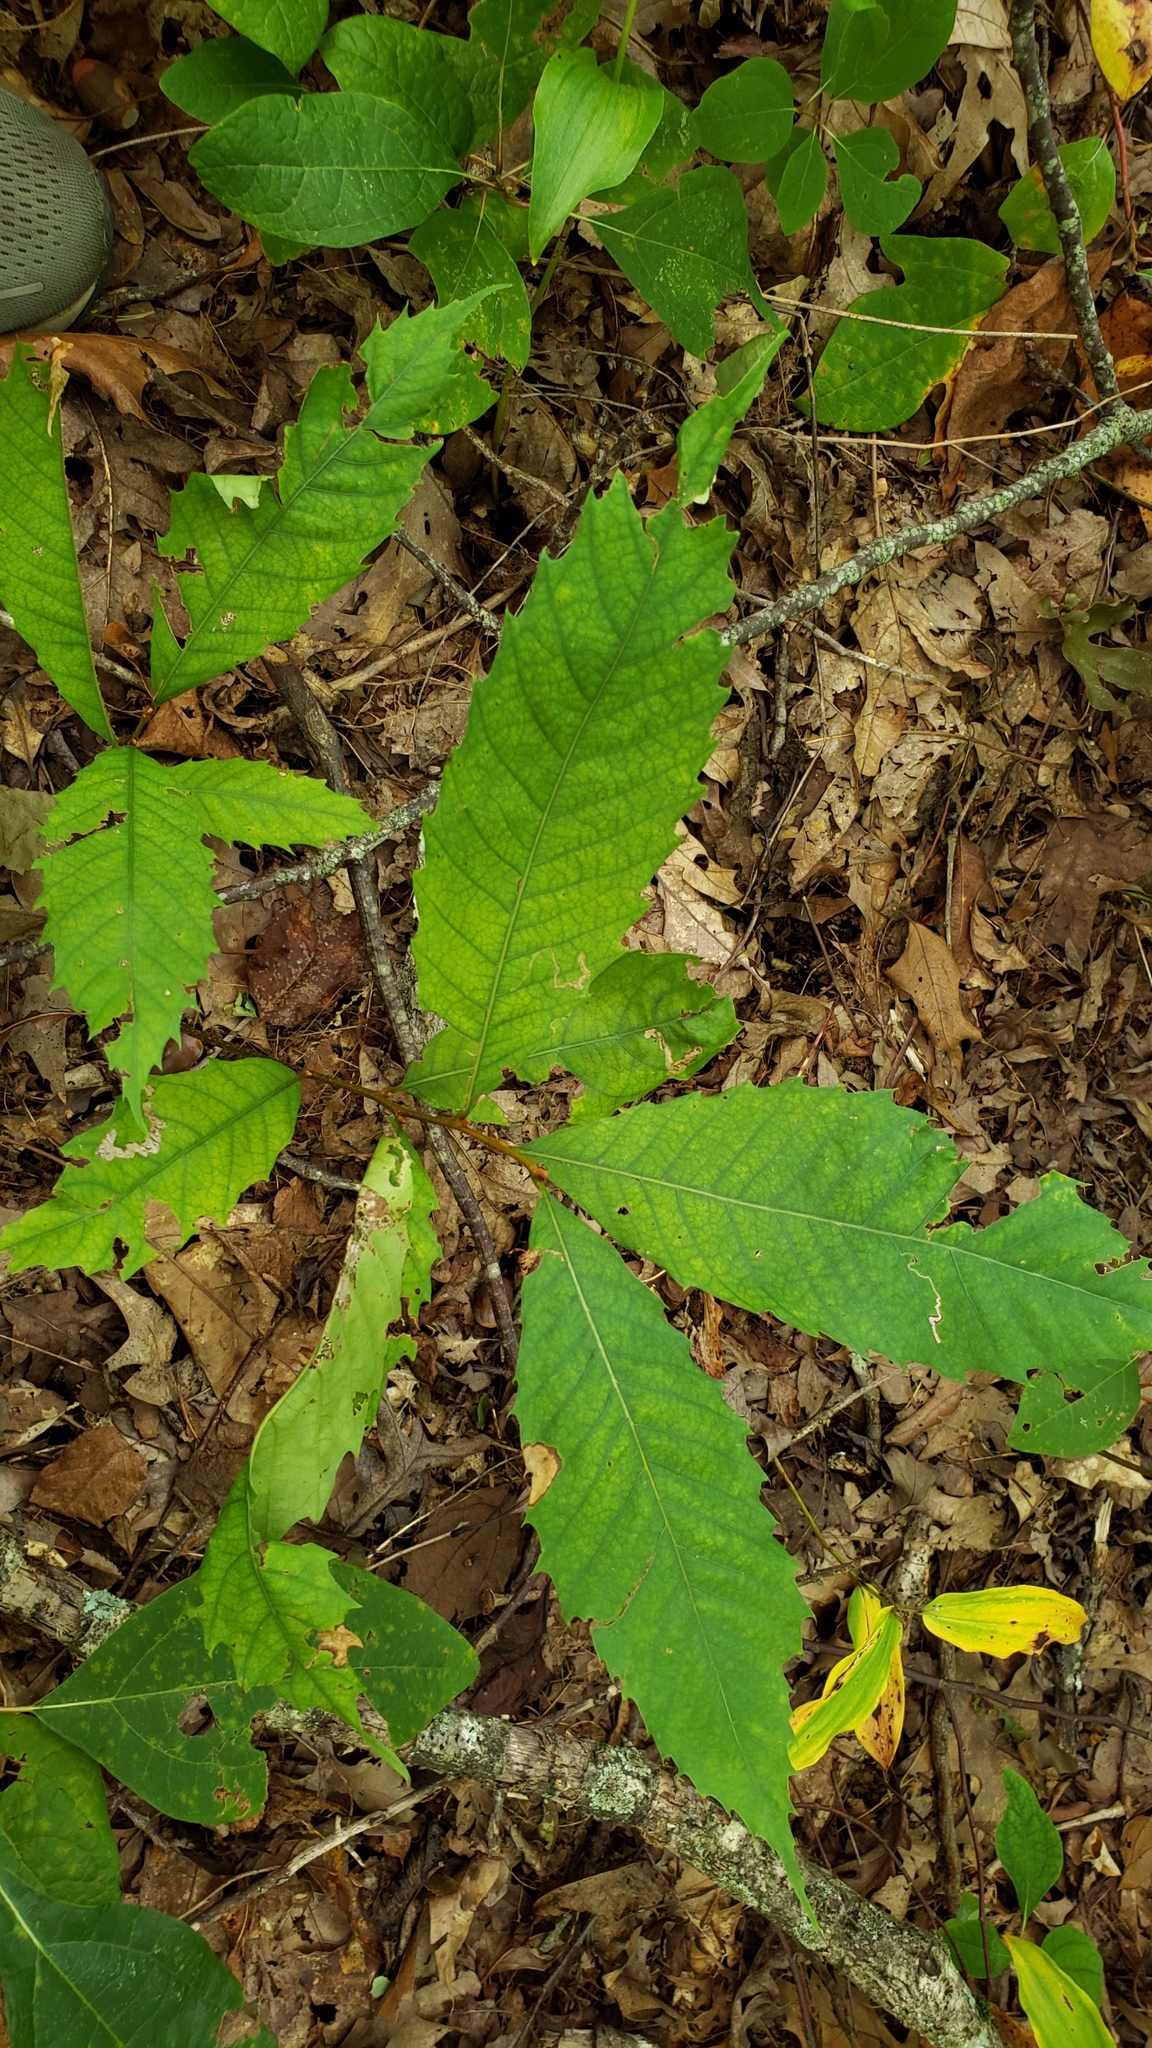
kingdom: Plantae
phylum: Tracheophyta
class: Magnoliopsida
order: Fagales
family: Fagaceae
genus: Castanea
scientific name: Castanea dentata
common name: American chestnut
